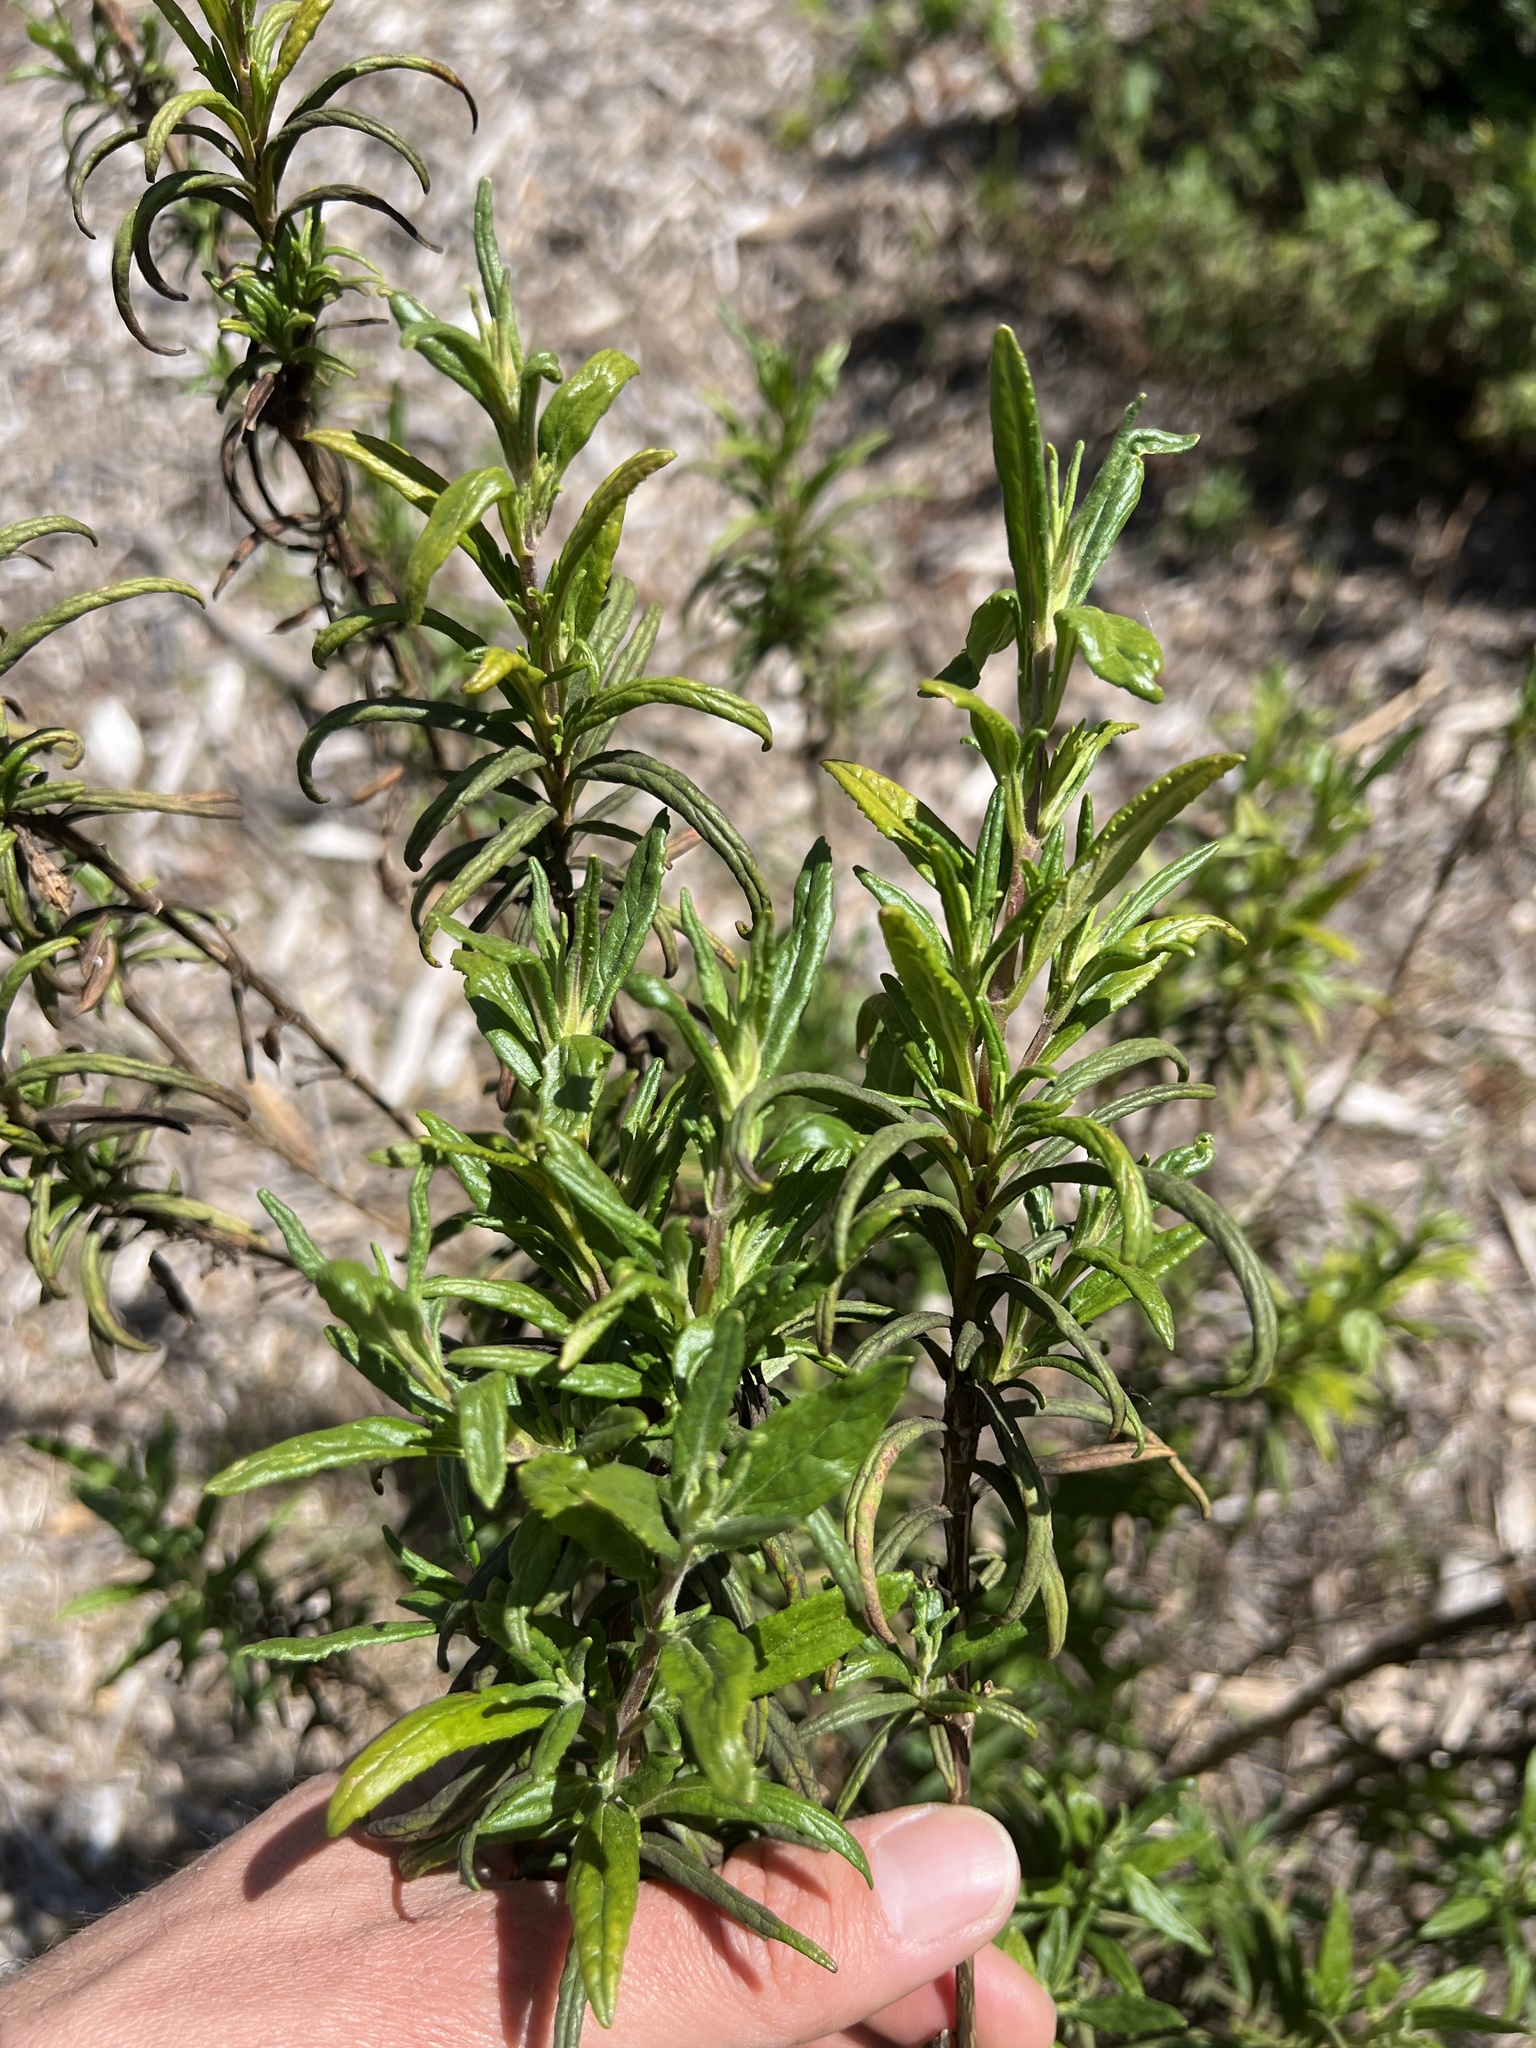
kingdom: Plantae
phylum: Tracheophyta
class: Magnoliopsida
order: Lamiales
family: Phrymaceae
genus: Diplacus
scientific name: Diplacus aurantiacus
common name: Bush monkey-flower
